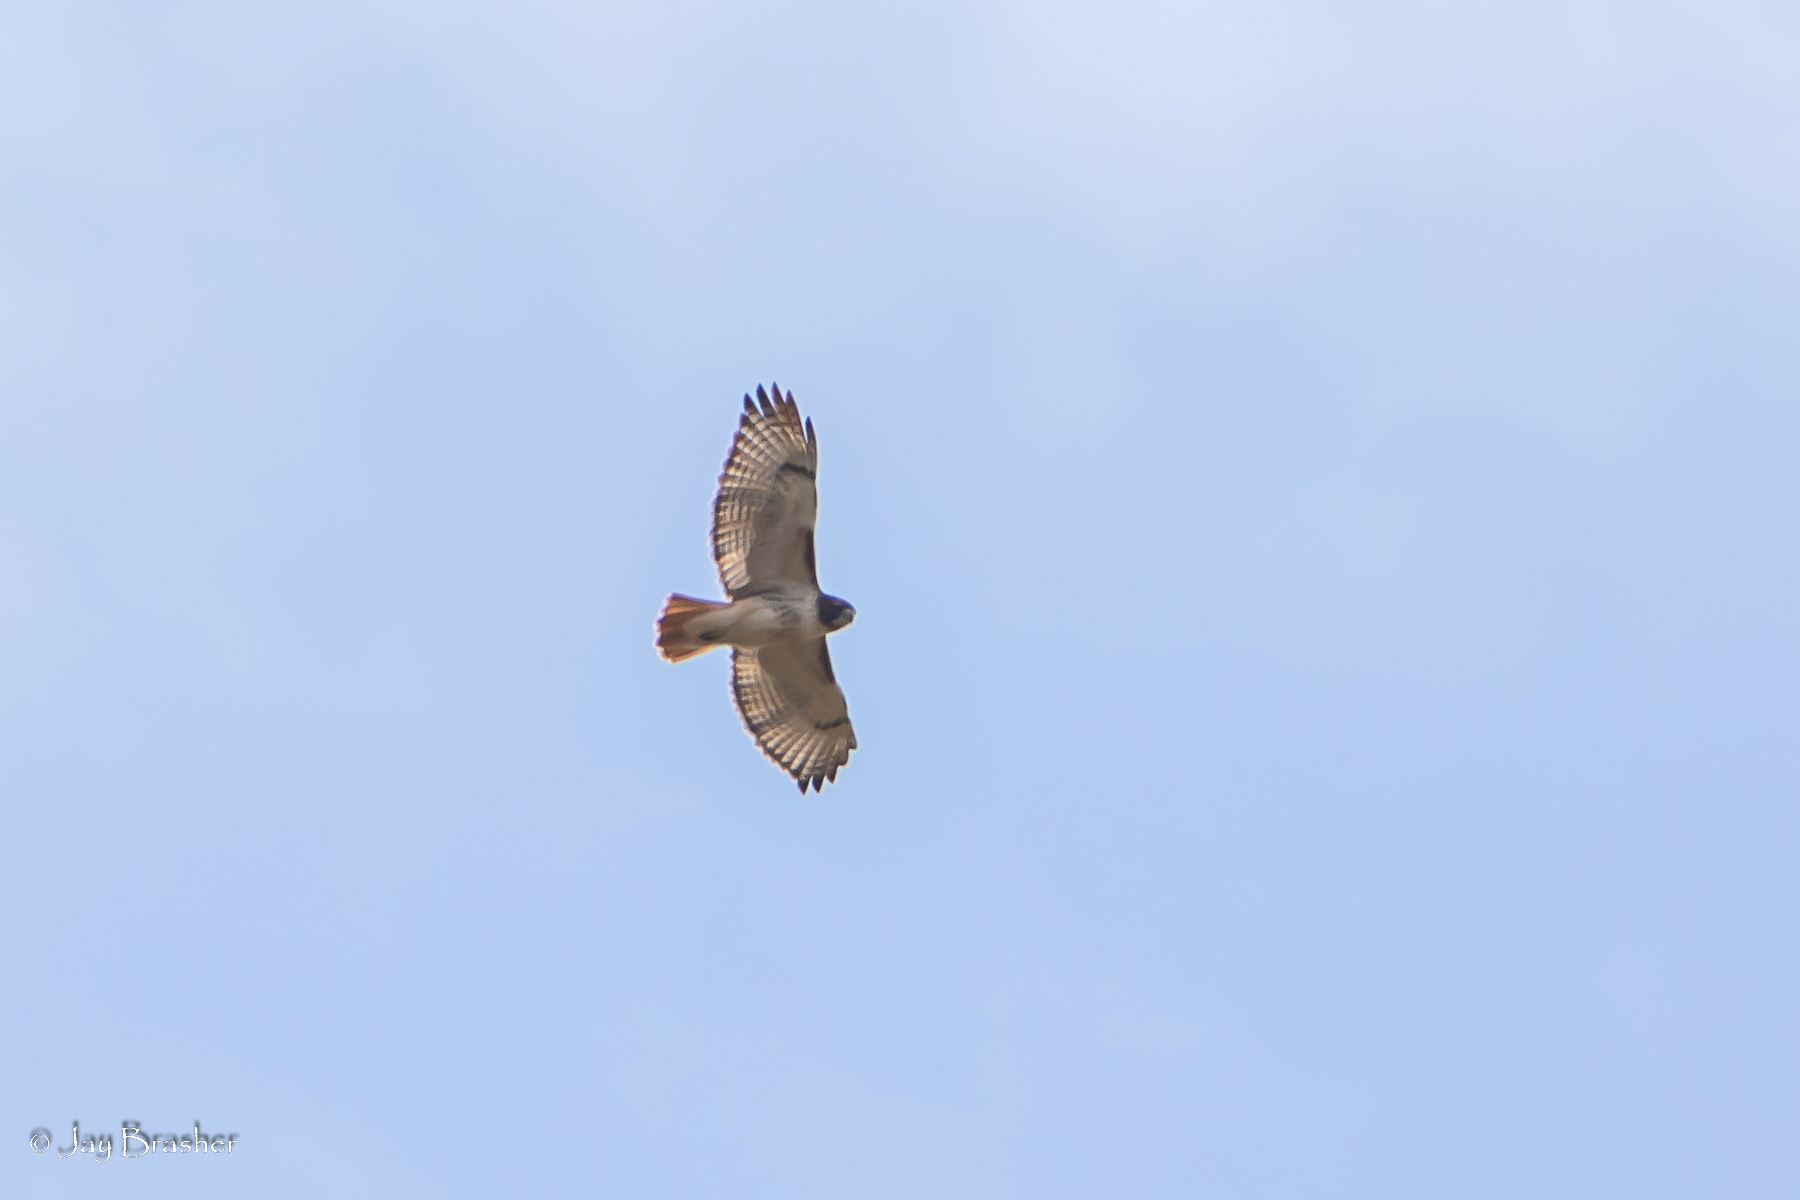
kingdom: Animalia
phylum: Chordata
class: Aves
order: Accipitriformes
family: Accipitridae
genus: Buteo
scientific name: Buteo jamaicensis
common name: Red-tailed hawk
